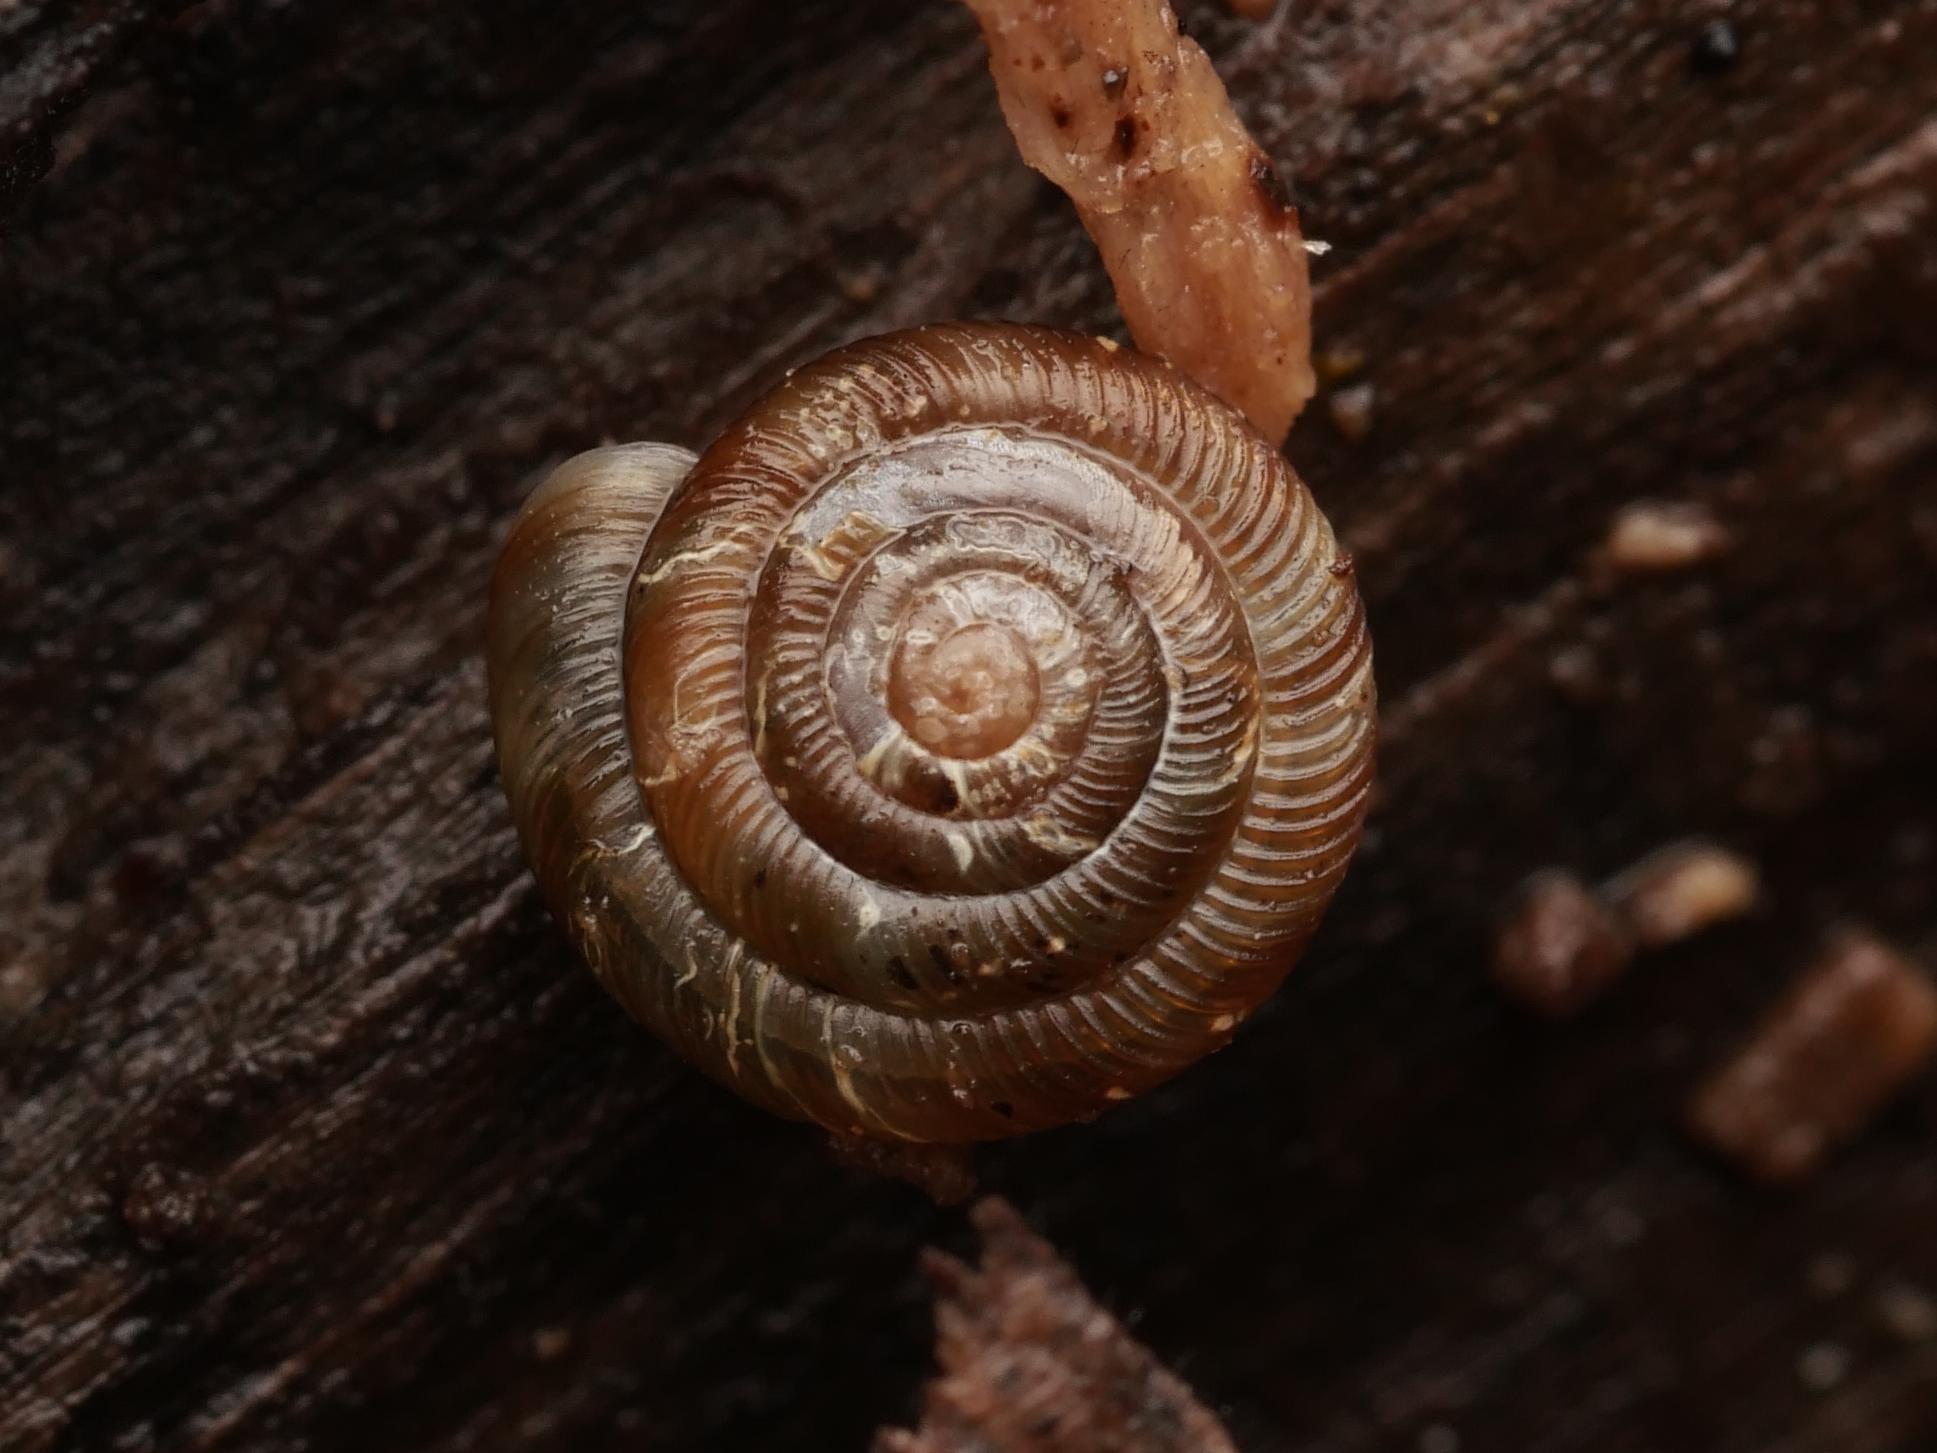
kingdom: Animalia
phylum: Mollusca
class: Gastropoda
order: Stylommatophora
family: Discidae
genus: Discus
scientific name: Discus rotundatus
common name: Rounded snail
